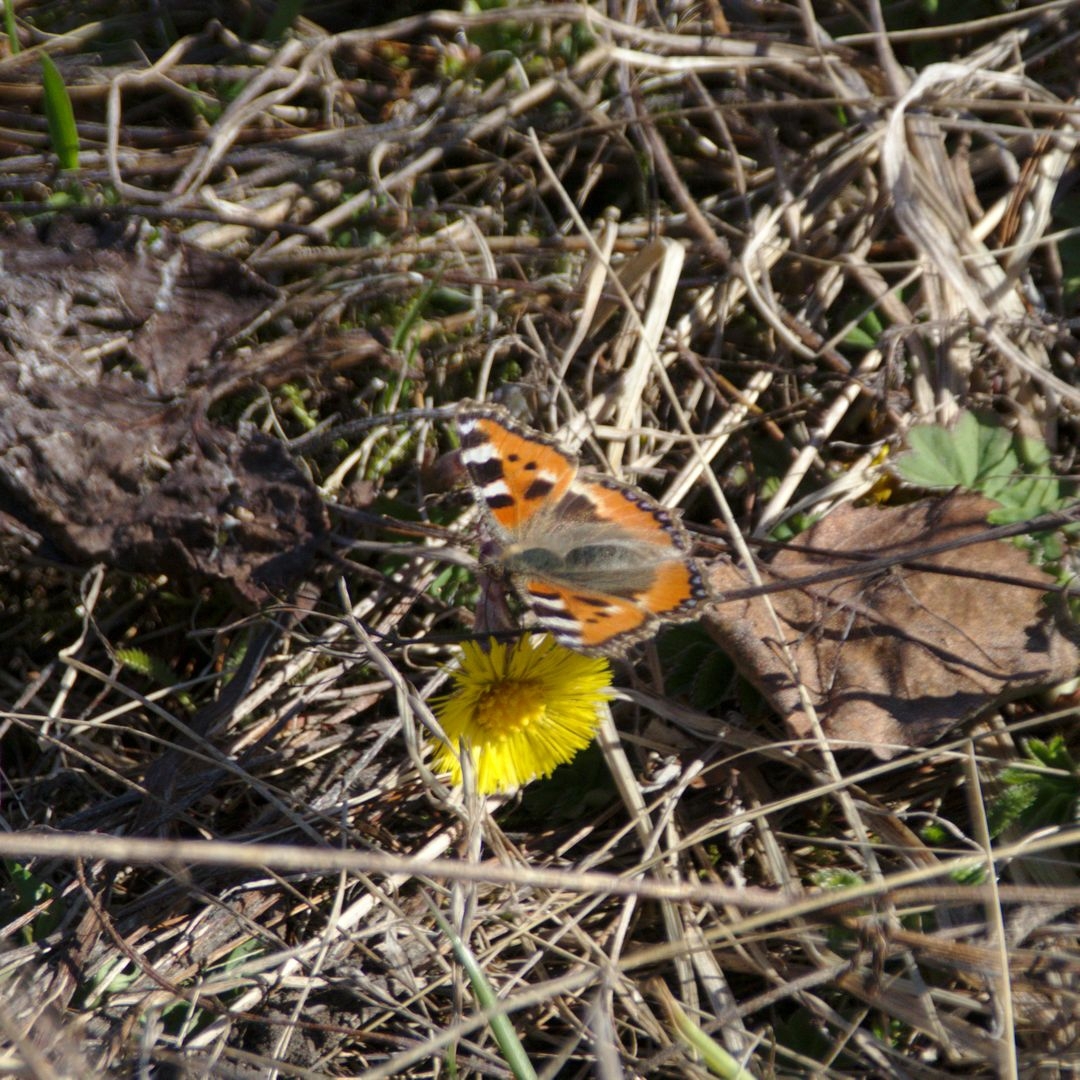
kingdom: Animalia
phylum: Arthropoda
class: Insecta
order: Lepidoptera
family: Nymphalidae
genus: Aglais
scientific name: Aglais urticae
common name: Small tortoiseshell
